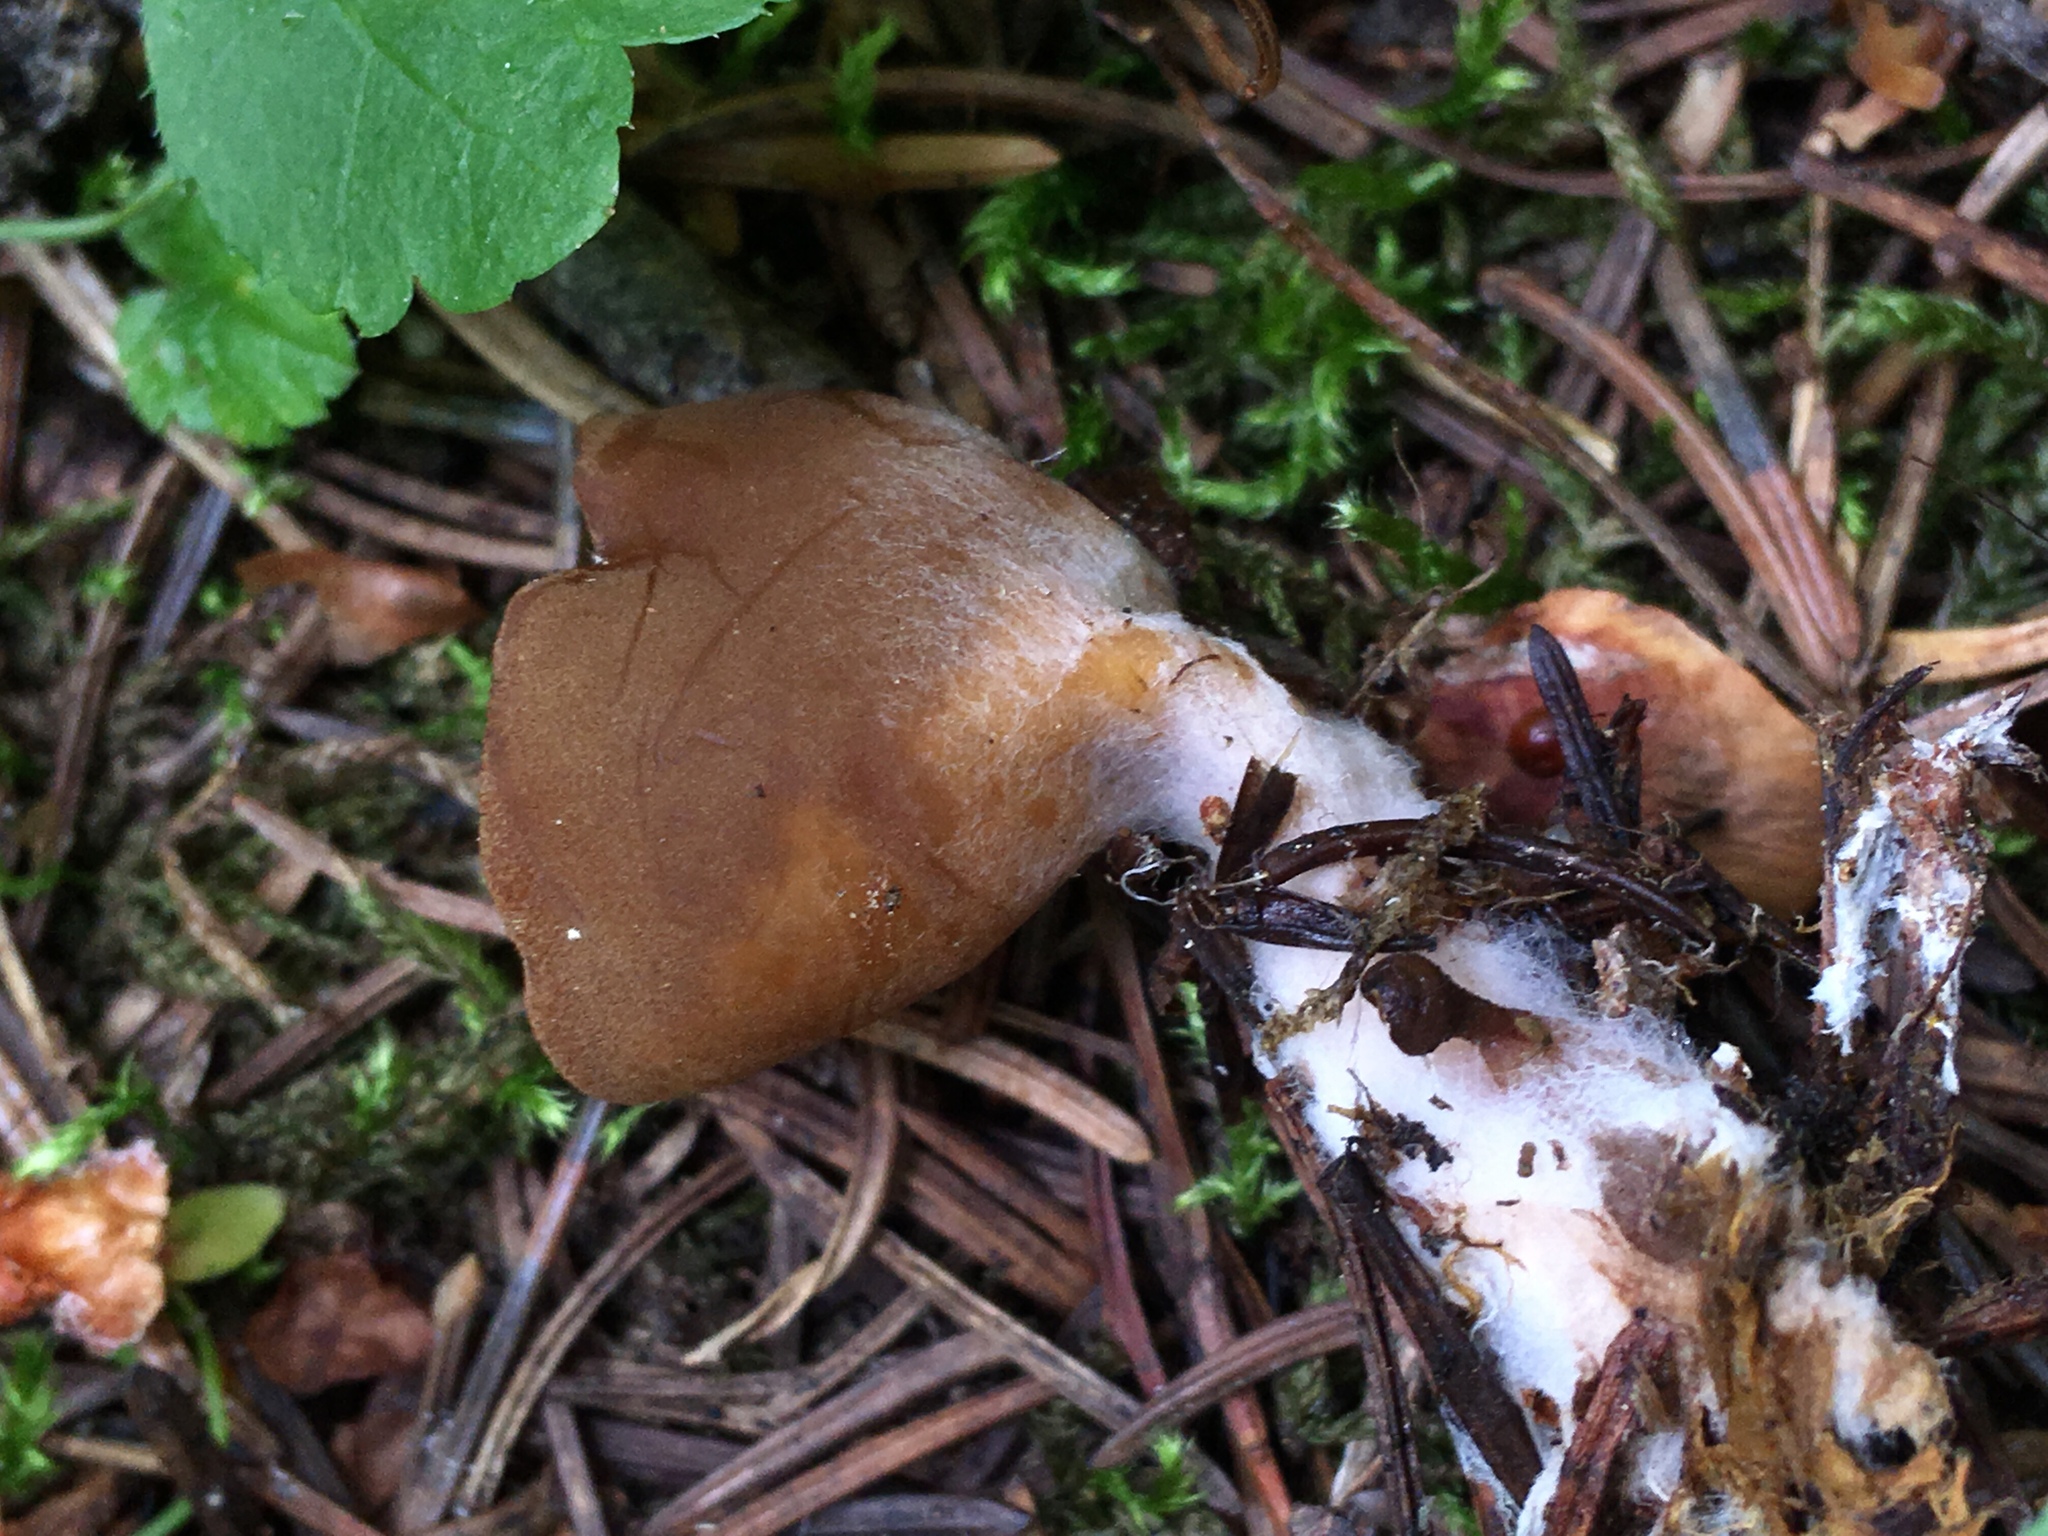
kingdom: Fungi
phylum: Ascomycota
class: Pezizomycetes
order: Pezizales
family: Helvellaceae
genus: Dissingia
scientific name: Dissingia crassitunicata
